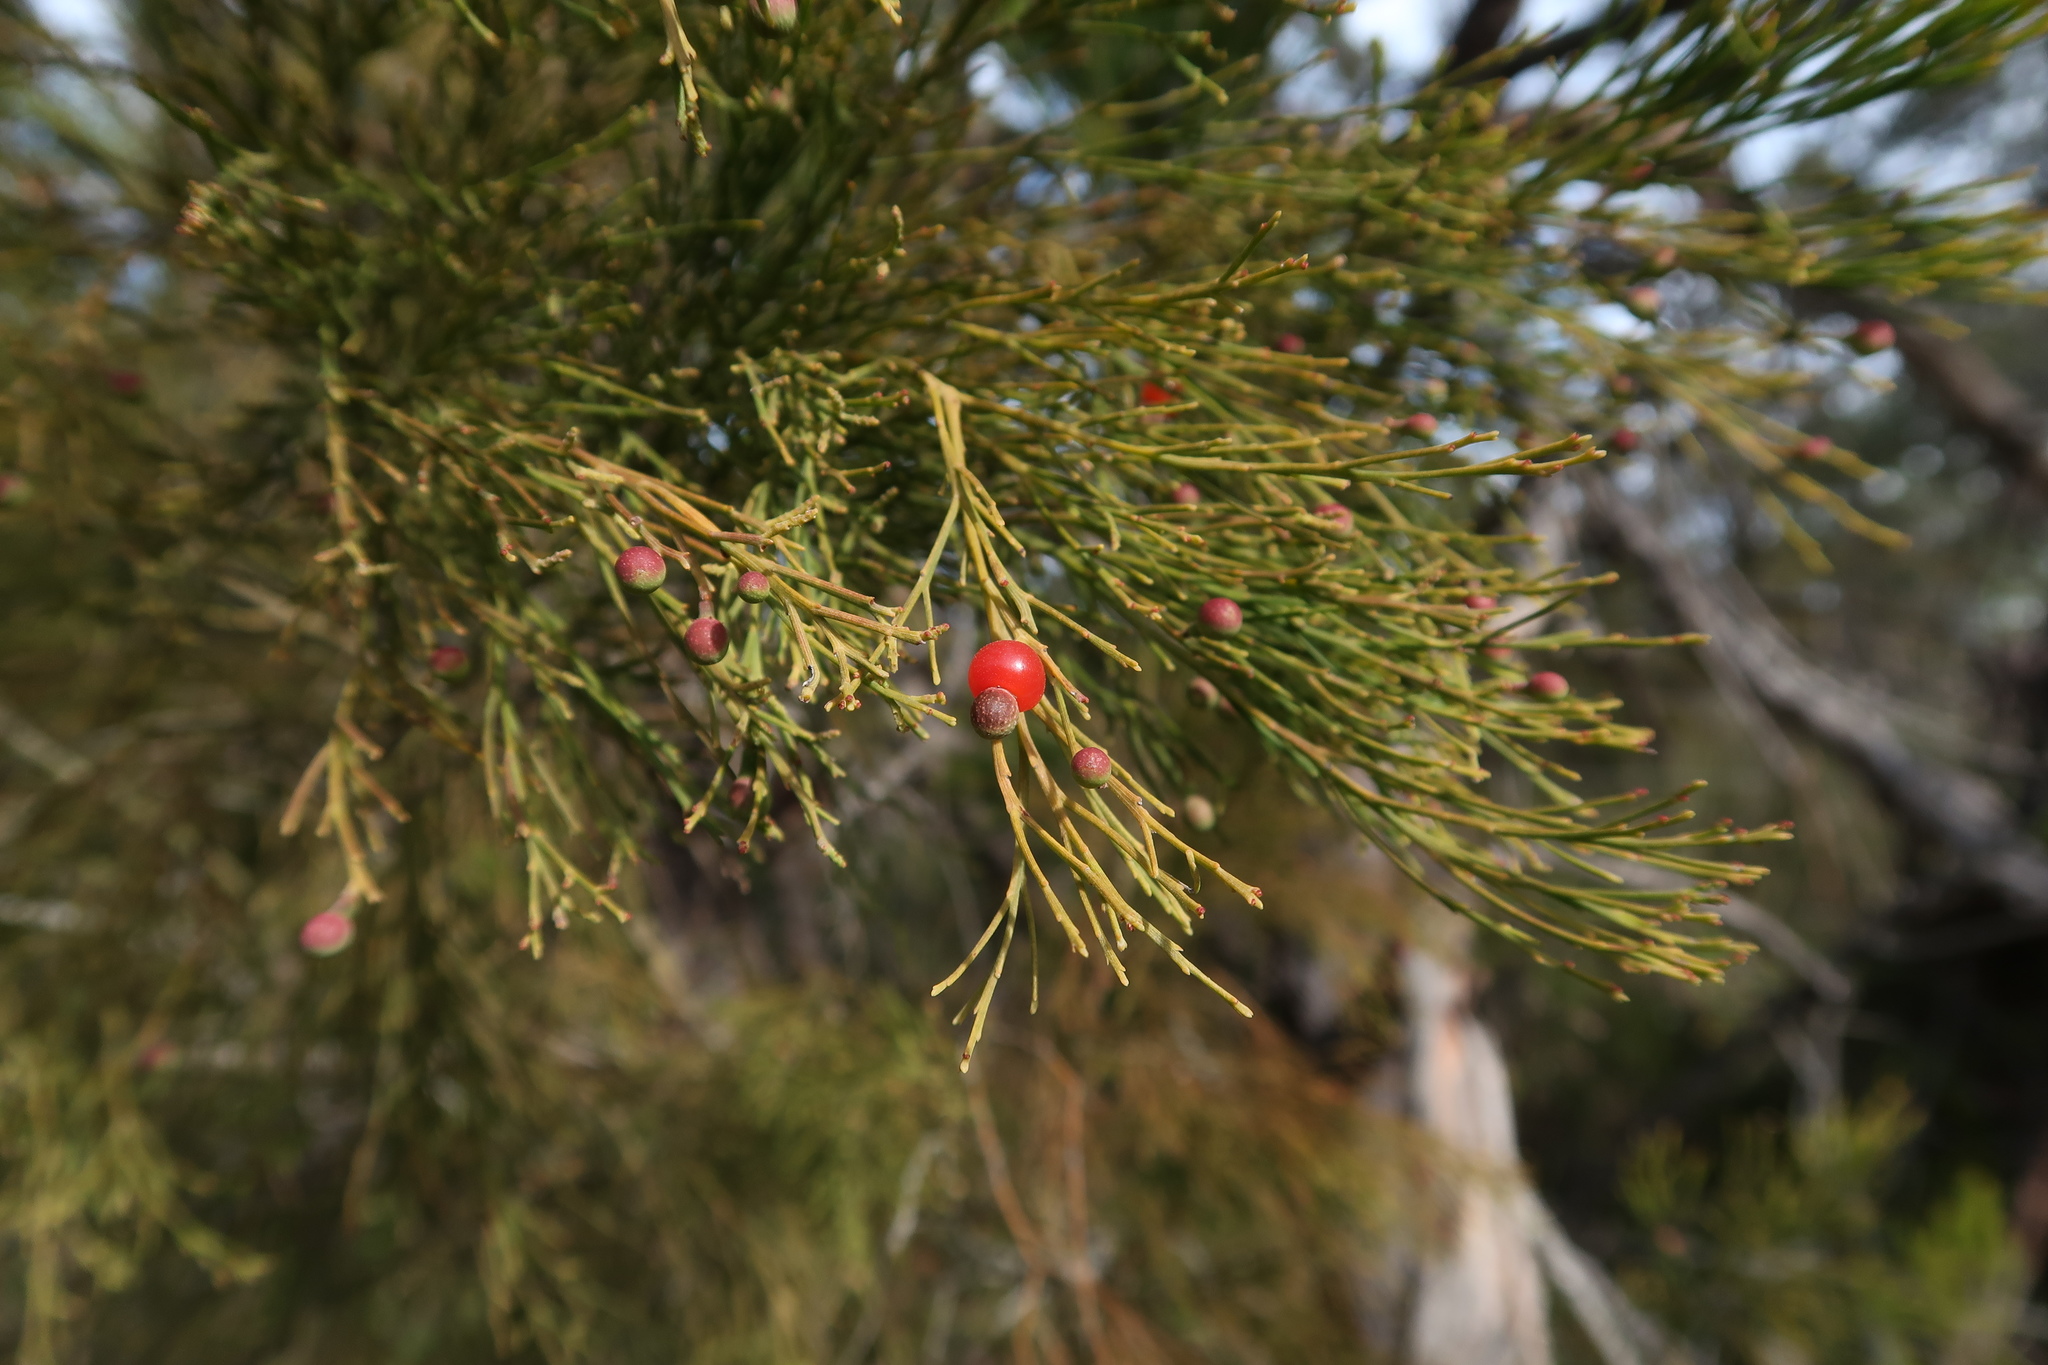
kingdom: Plantae
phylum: Tracheophyta
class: Magnoliopsida
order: Santalales
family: Santalaceae
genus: Exocarpos
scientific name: Exocarpos cupressiformis
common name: Cherry ballart
